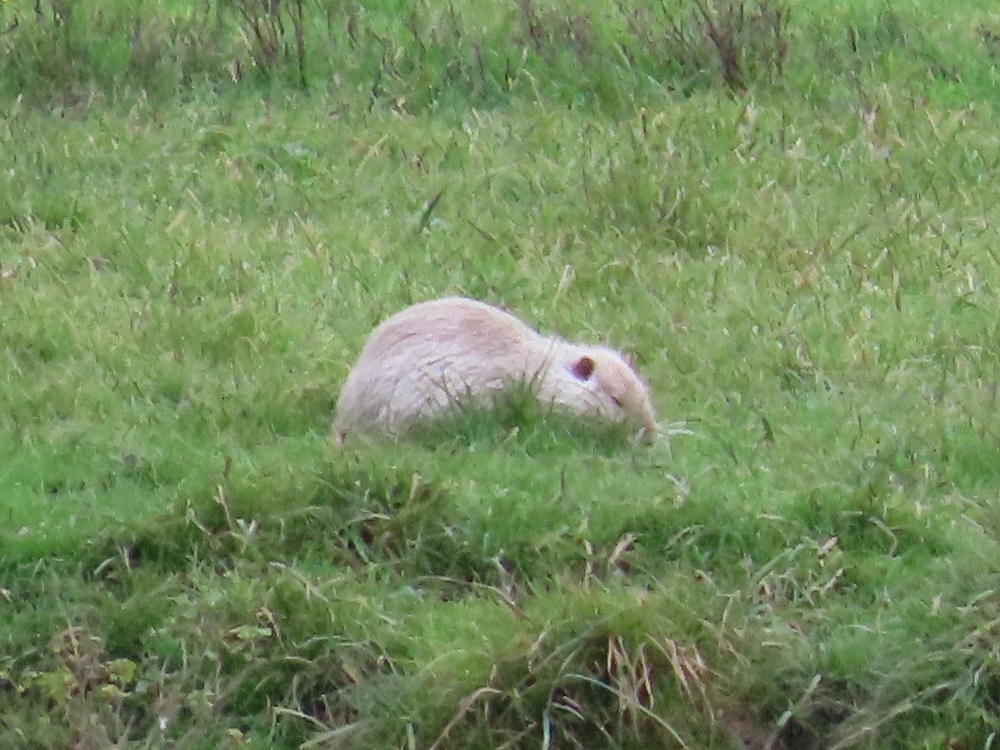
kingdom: Animalia
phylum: Chordata
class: Mammalia
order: Rodentia
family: Myocastoridae
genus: Myocastor
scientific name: Myocastor coypus
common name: Coypu
